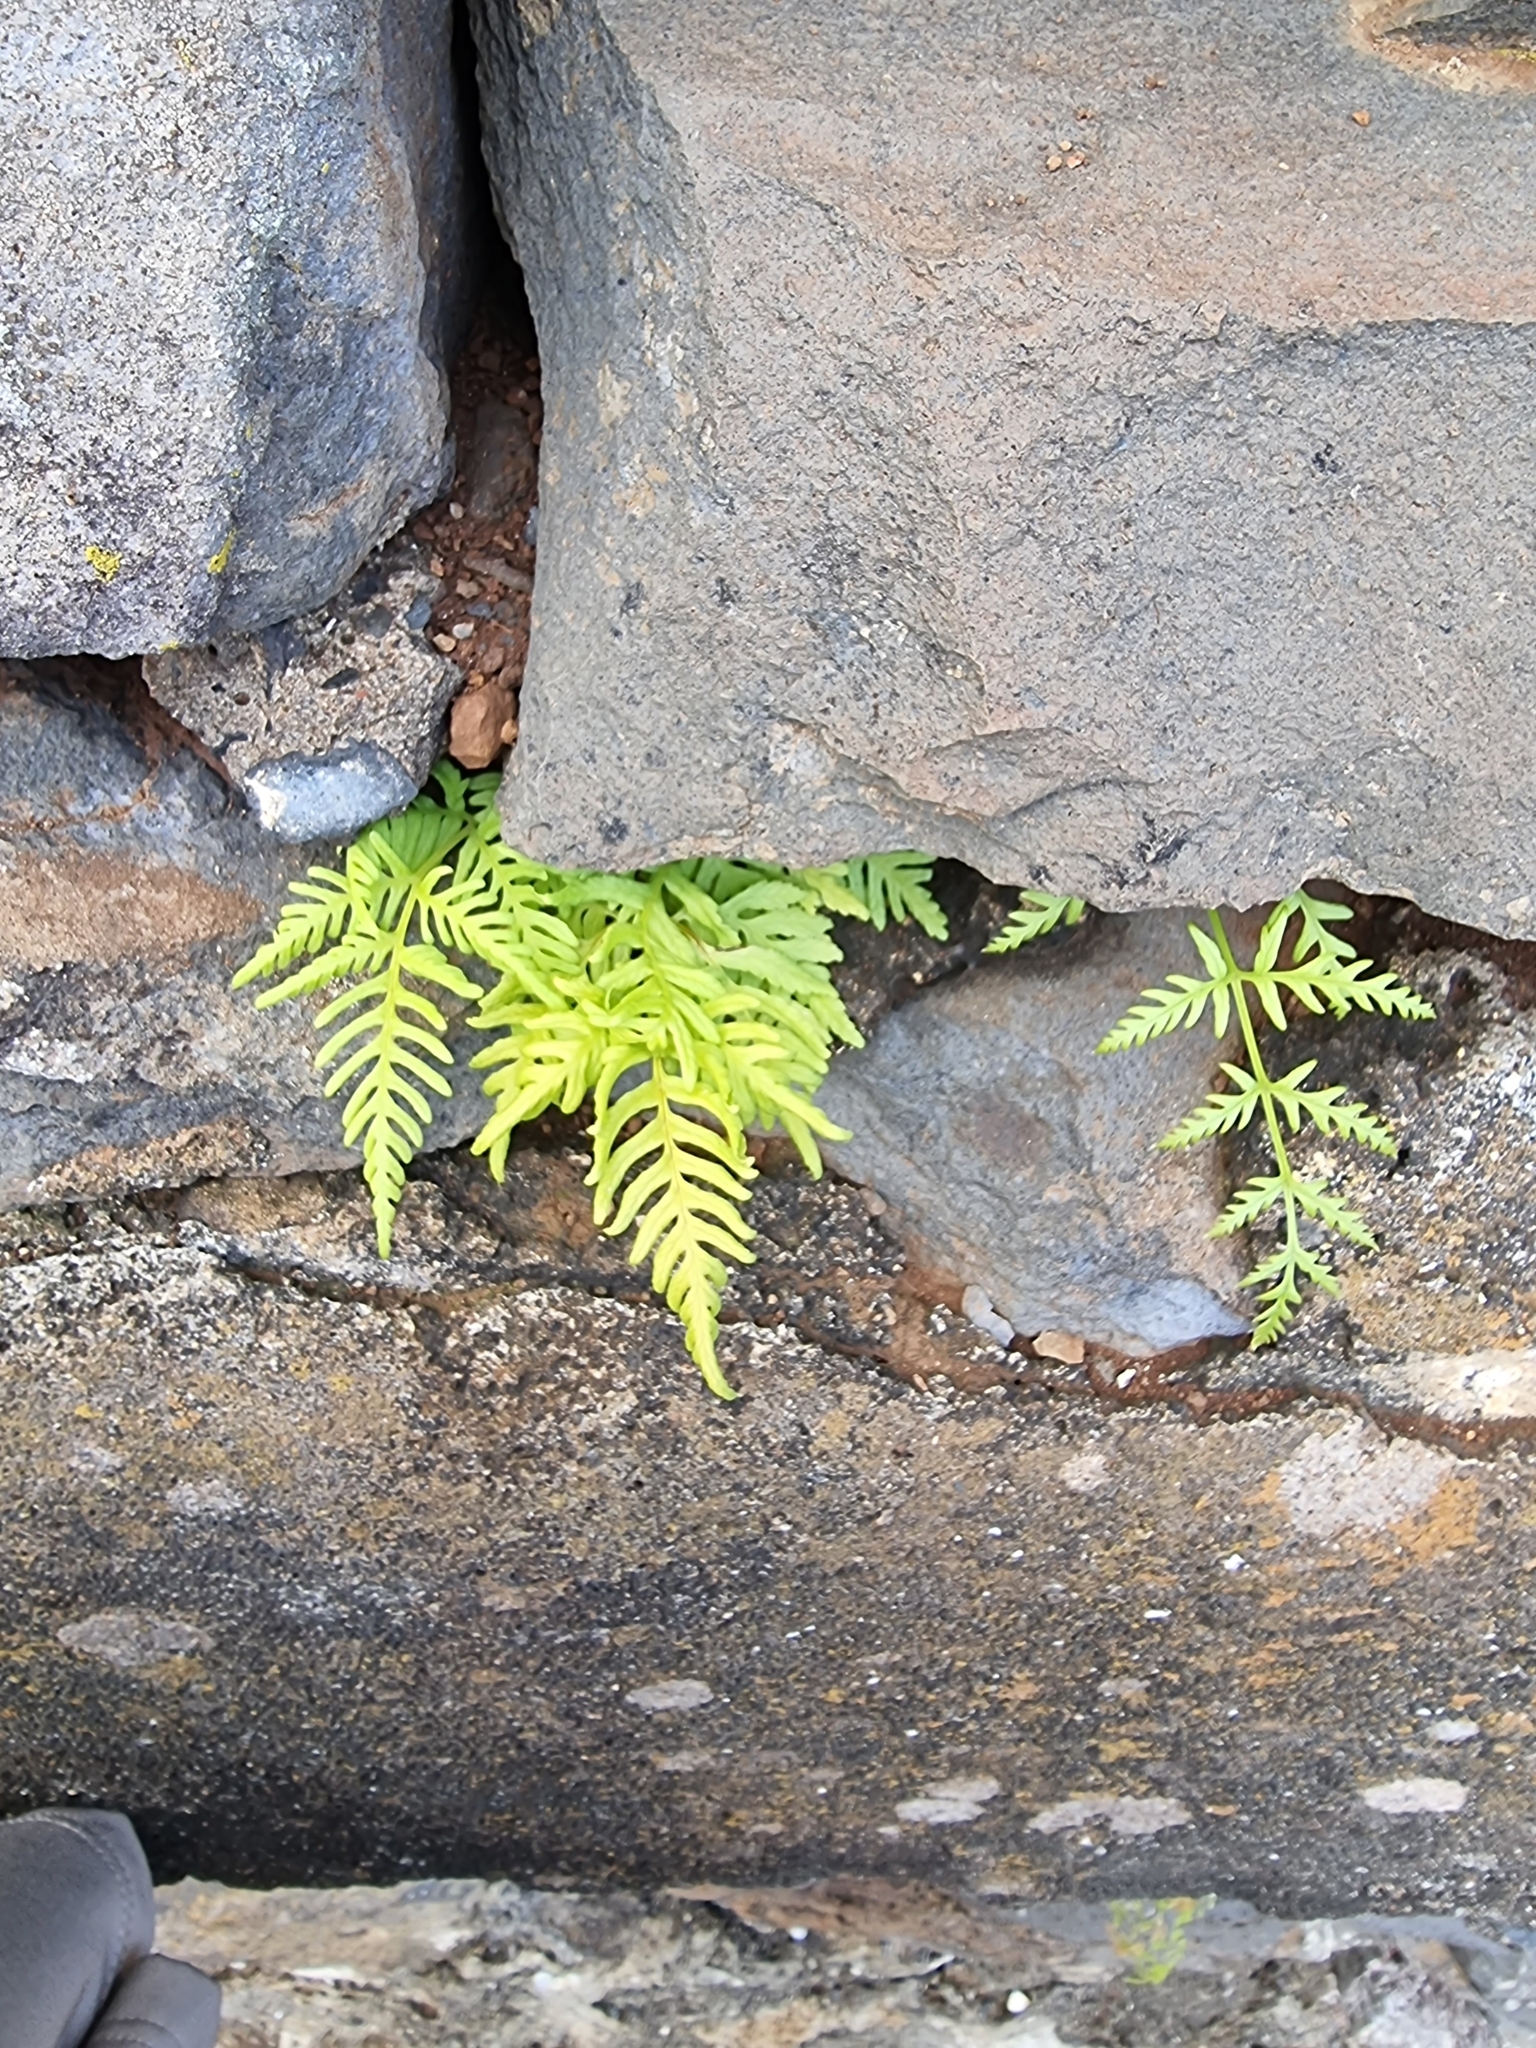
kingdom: Plantae
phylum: Tracheophyta
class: Polypodiopsida
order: Polypodiales
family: Pteridaceae
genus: Pteris
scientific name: Pteris tremula
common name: Australian brake
